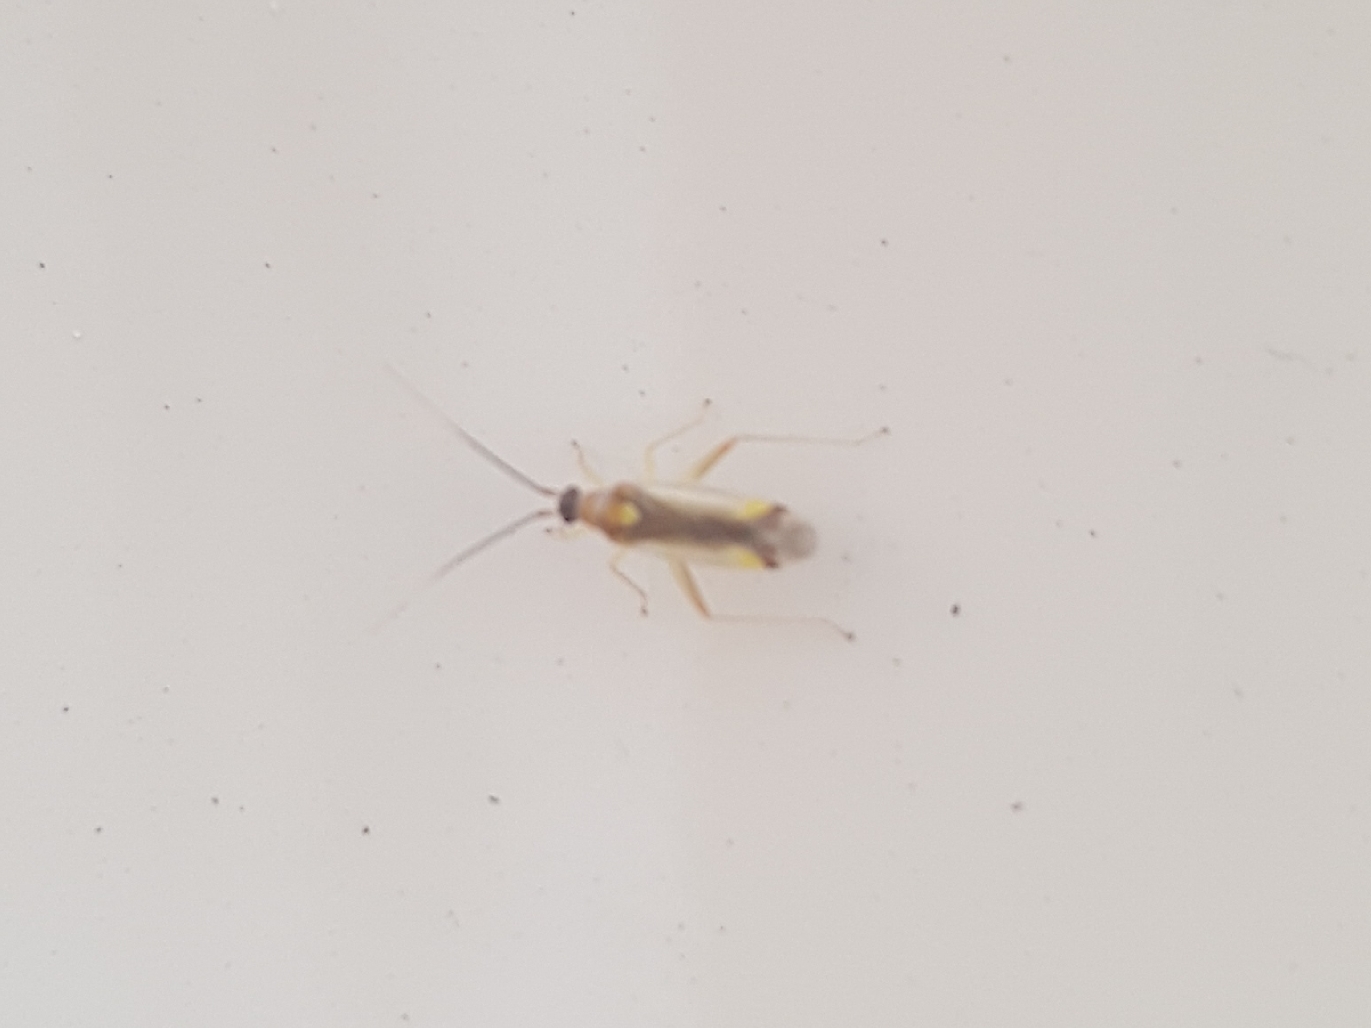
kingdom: Animalia
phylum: Arthropoda
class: Insecta
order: Hemiptera
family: Miridae
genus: Campyloneura
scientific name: Campyloneura virgula
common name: Predatory bug
